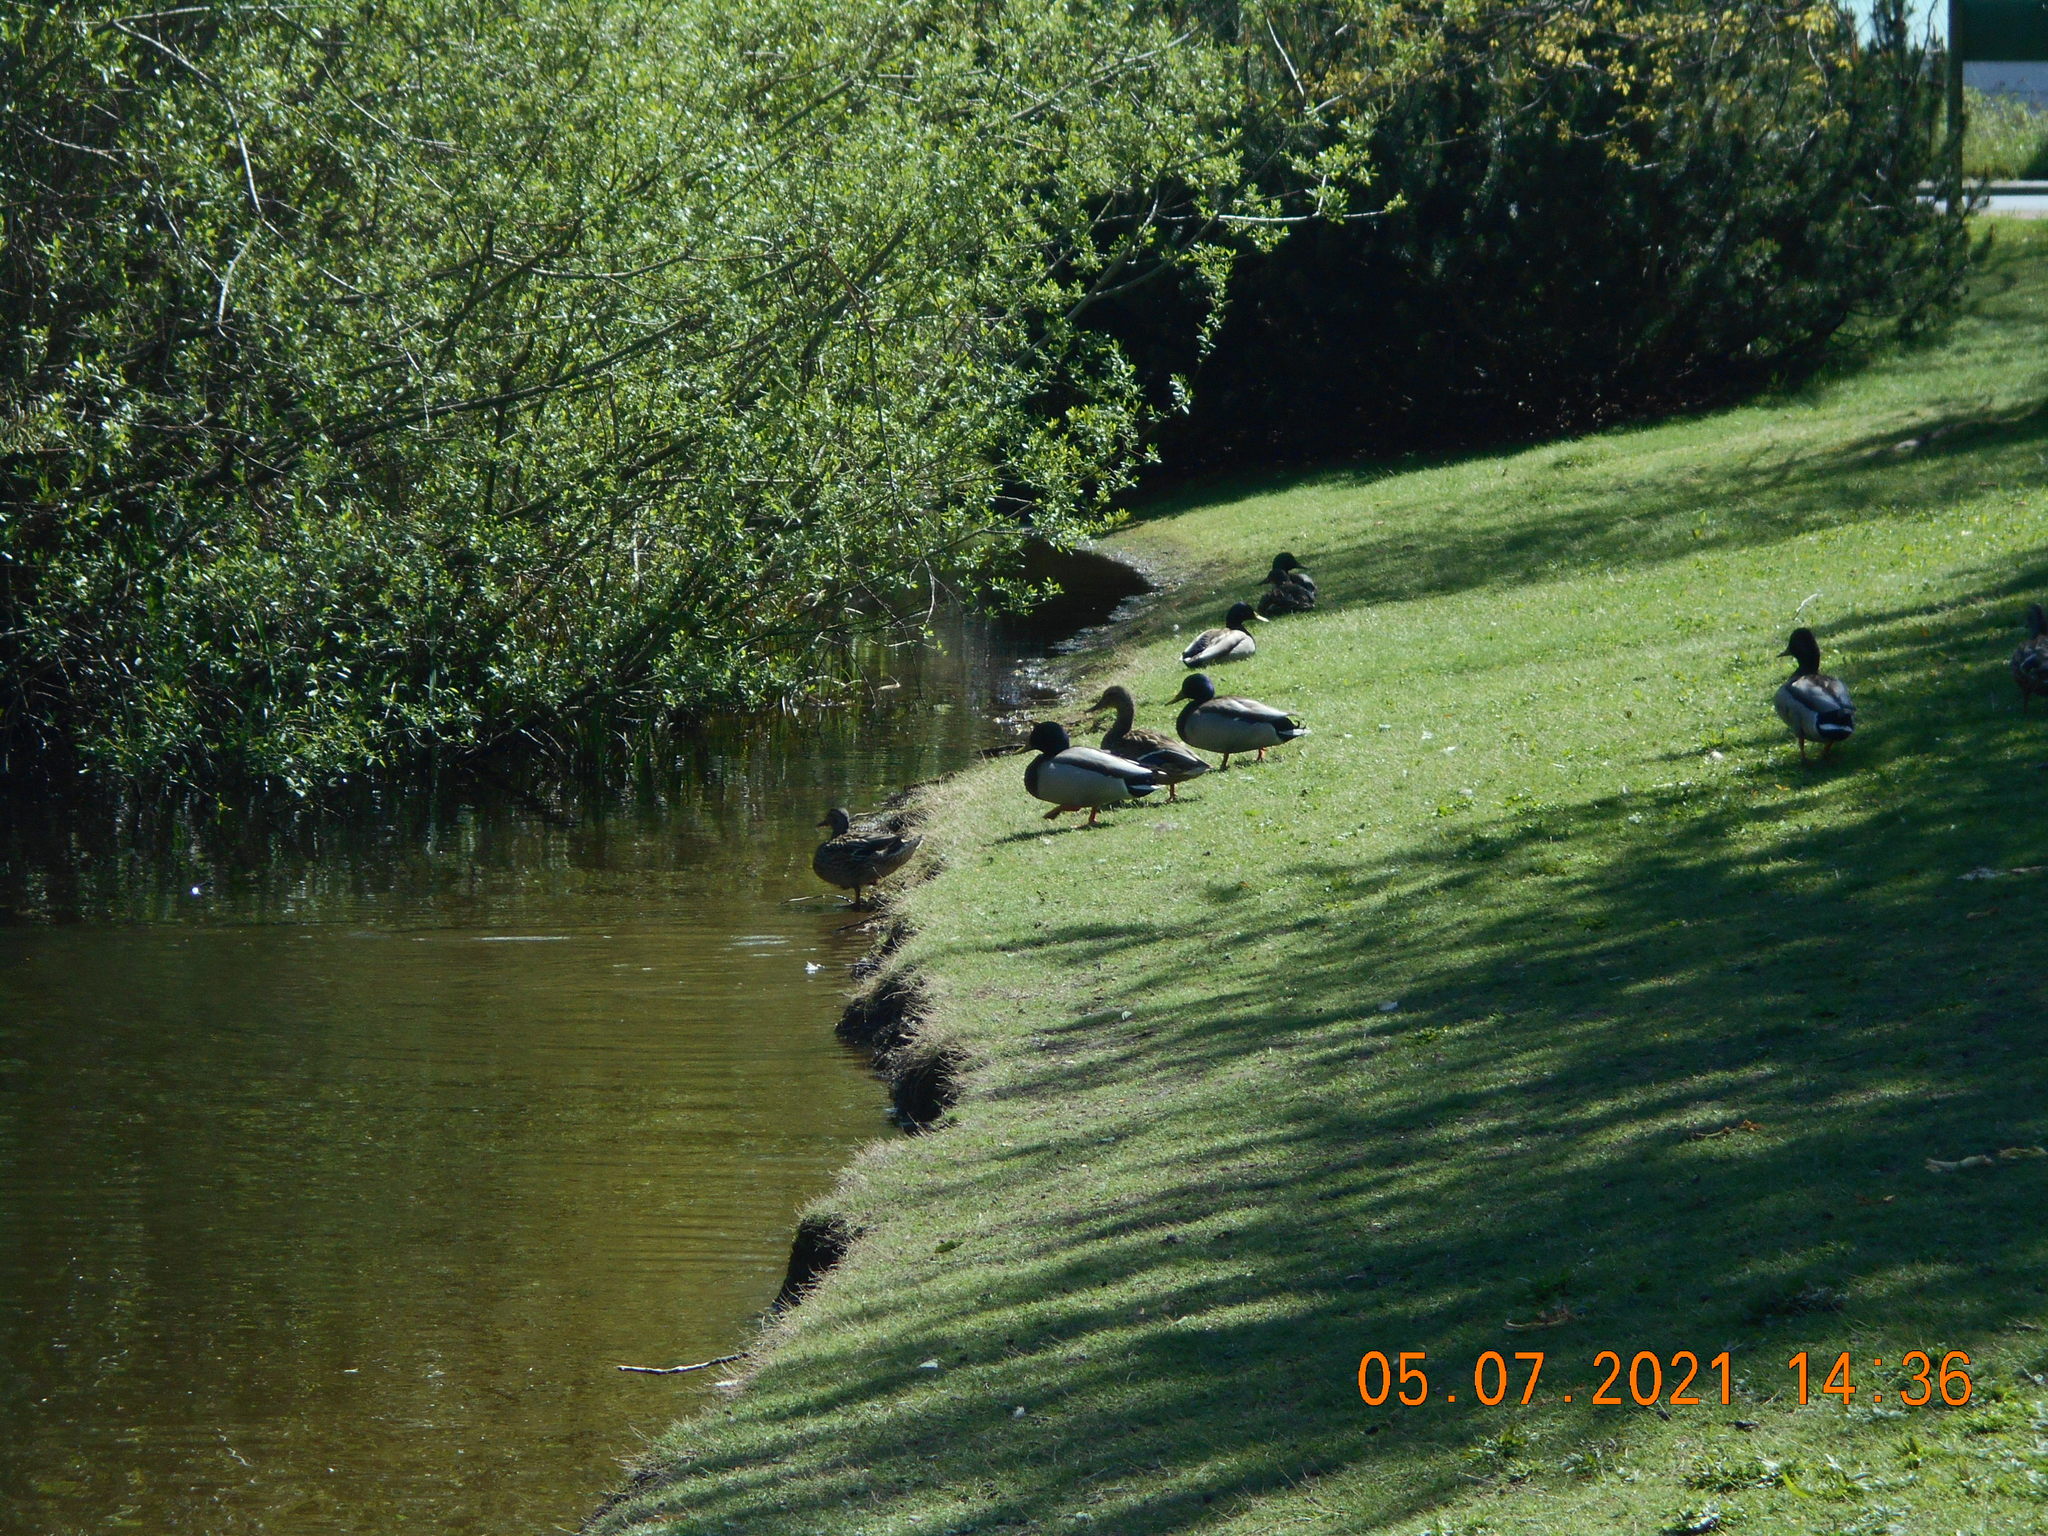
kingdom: Animalia
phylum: Chordata
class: Aves
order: Anseriformes
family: Anatidae
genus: Anas
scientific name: Anas platyrhynchos
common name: Mallard
